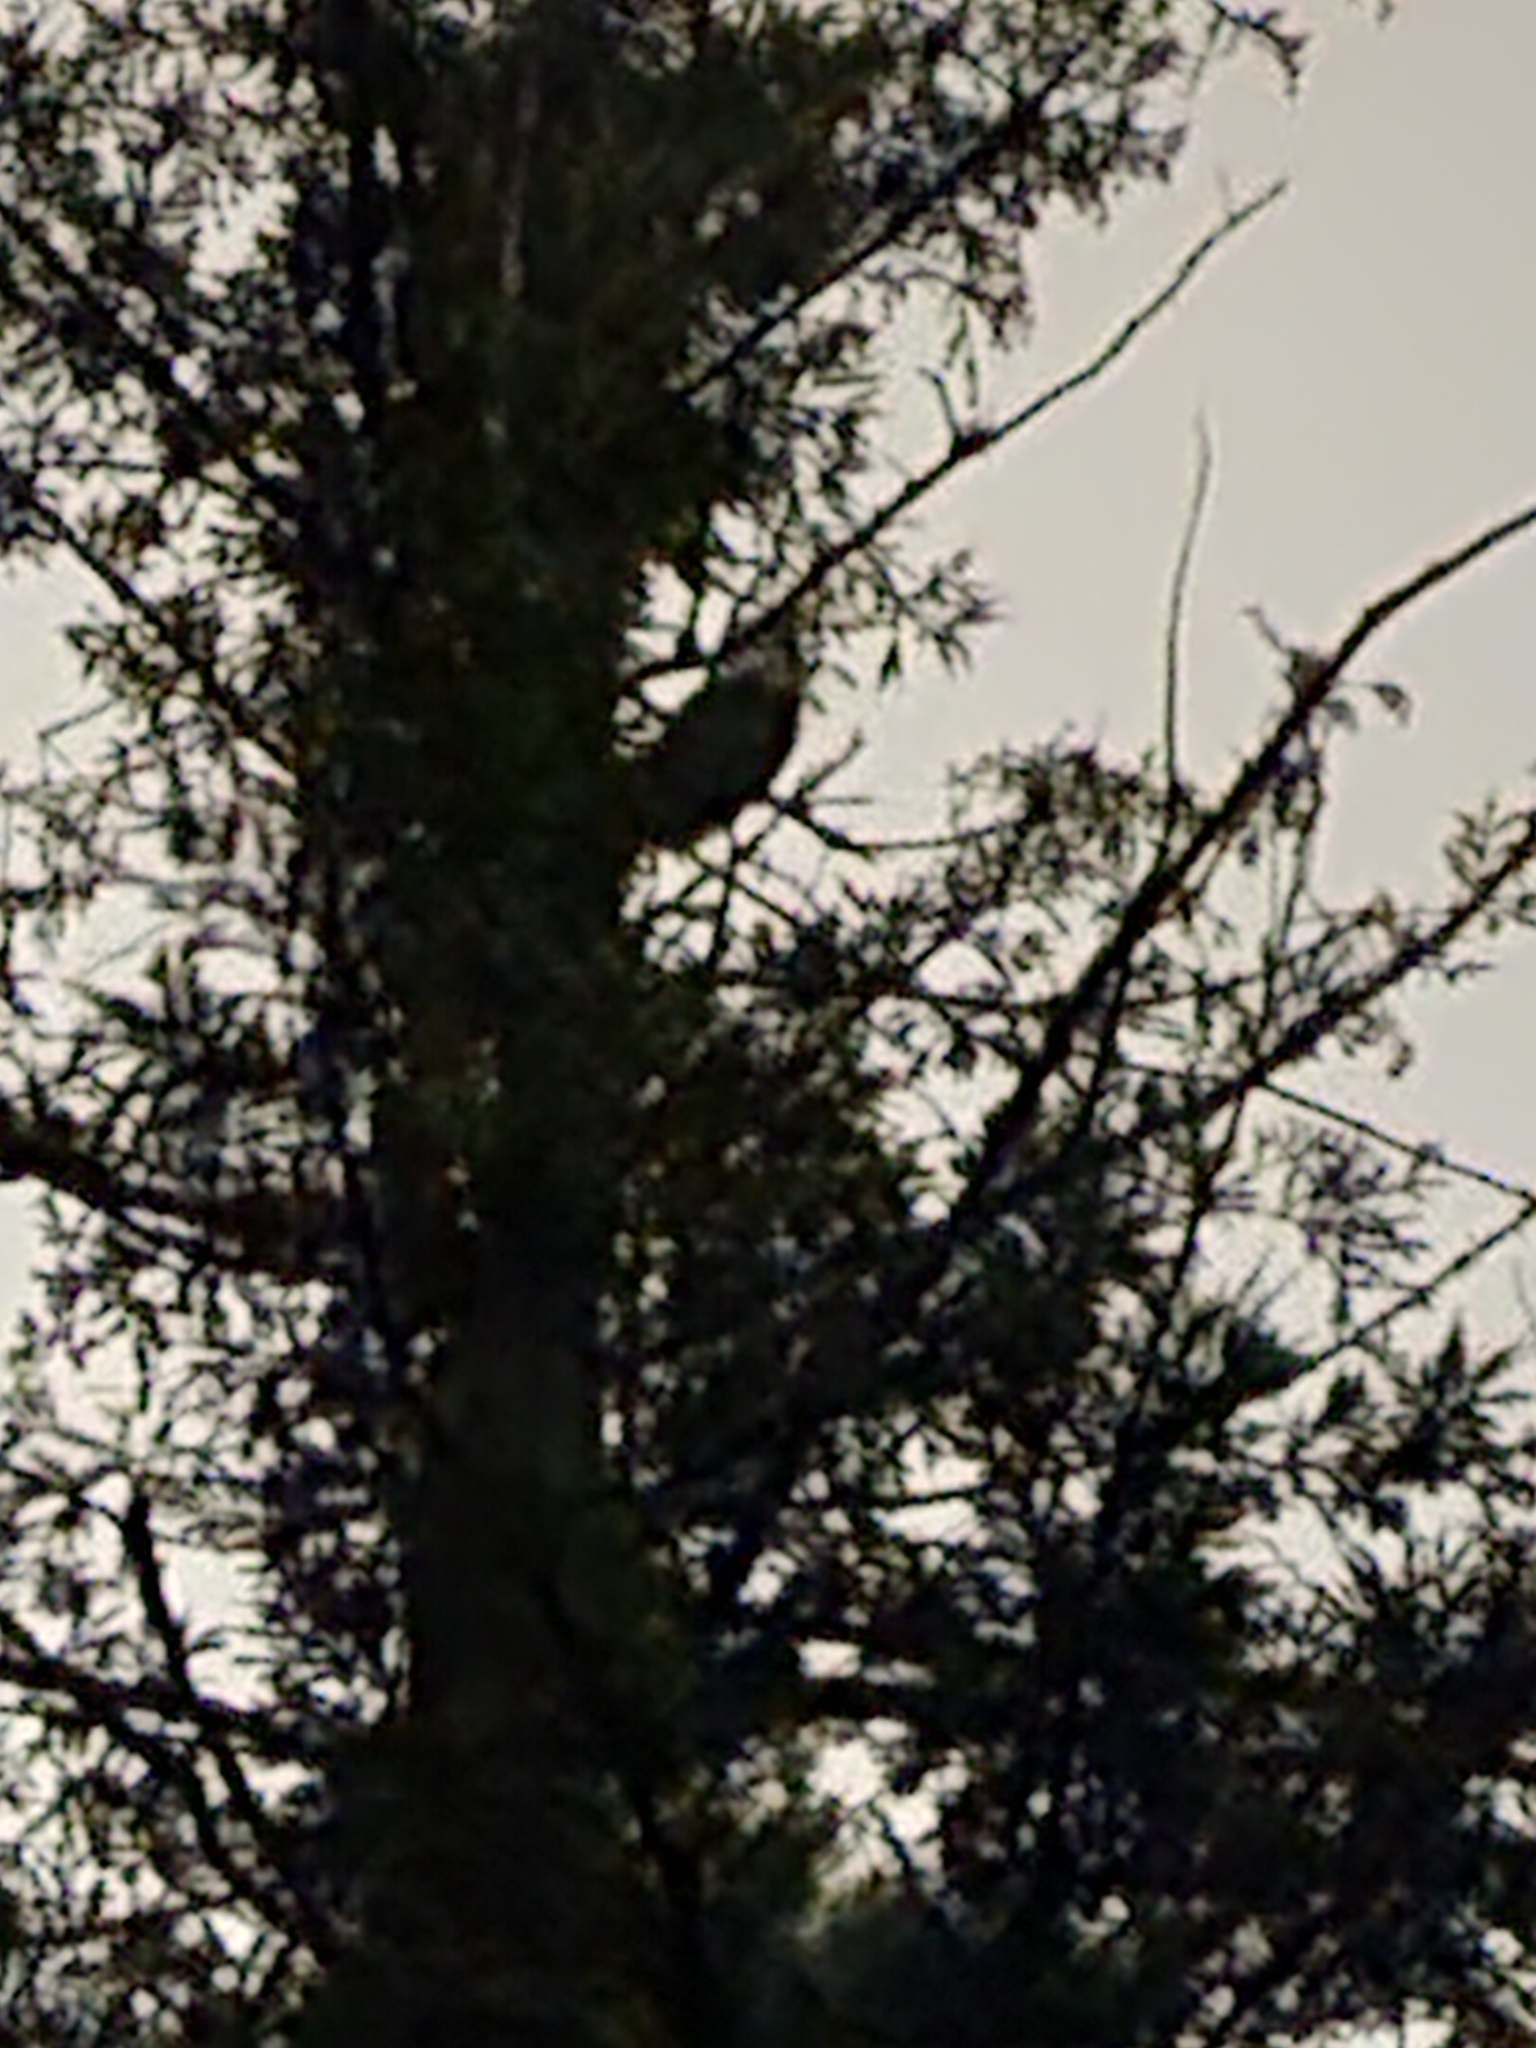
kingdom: Animalia
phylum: Chordata
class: Aves
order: Strigiformes
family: Strigidae
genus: Bubo
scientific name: Bubo virginianus
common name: Great horned owl
